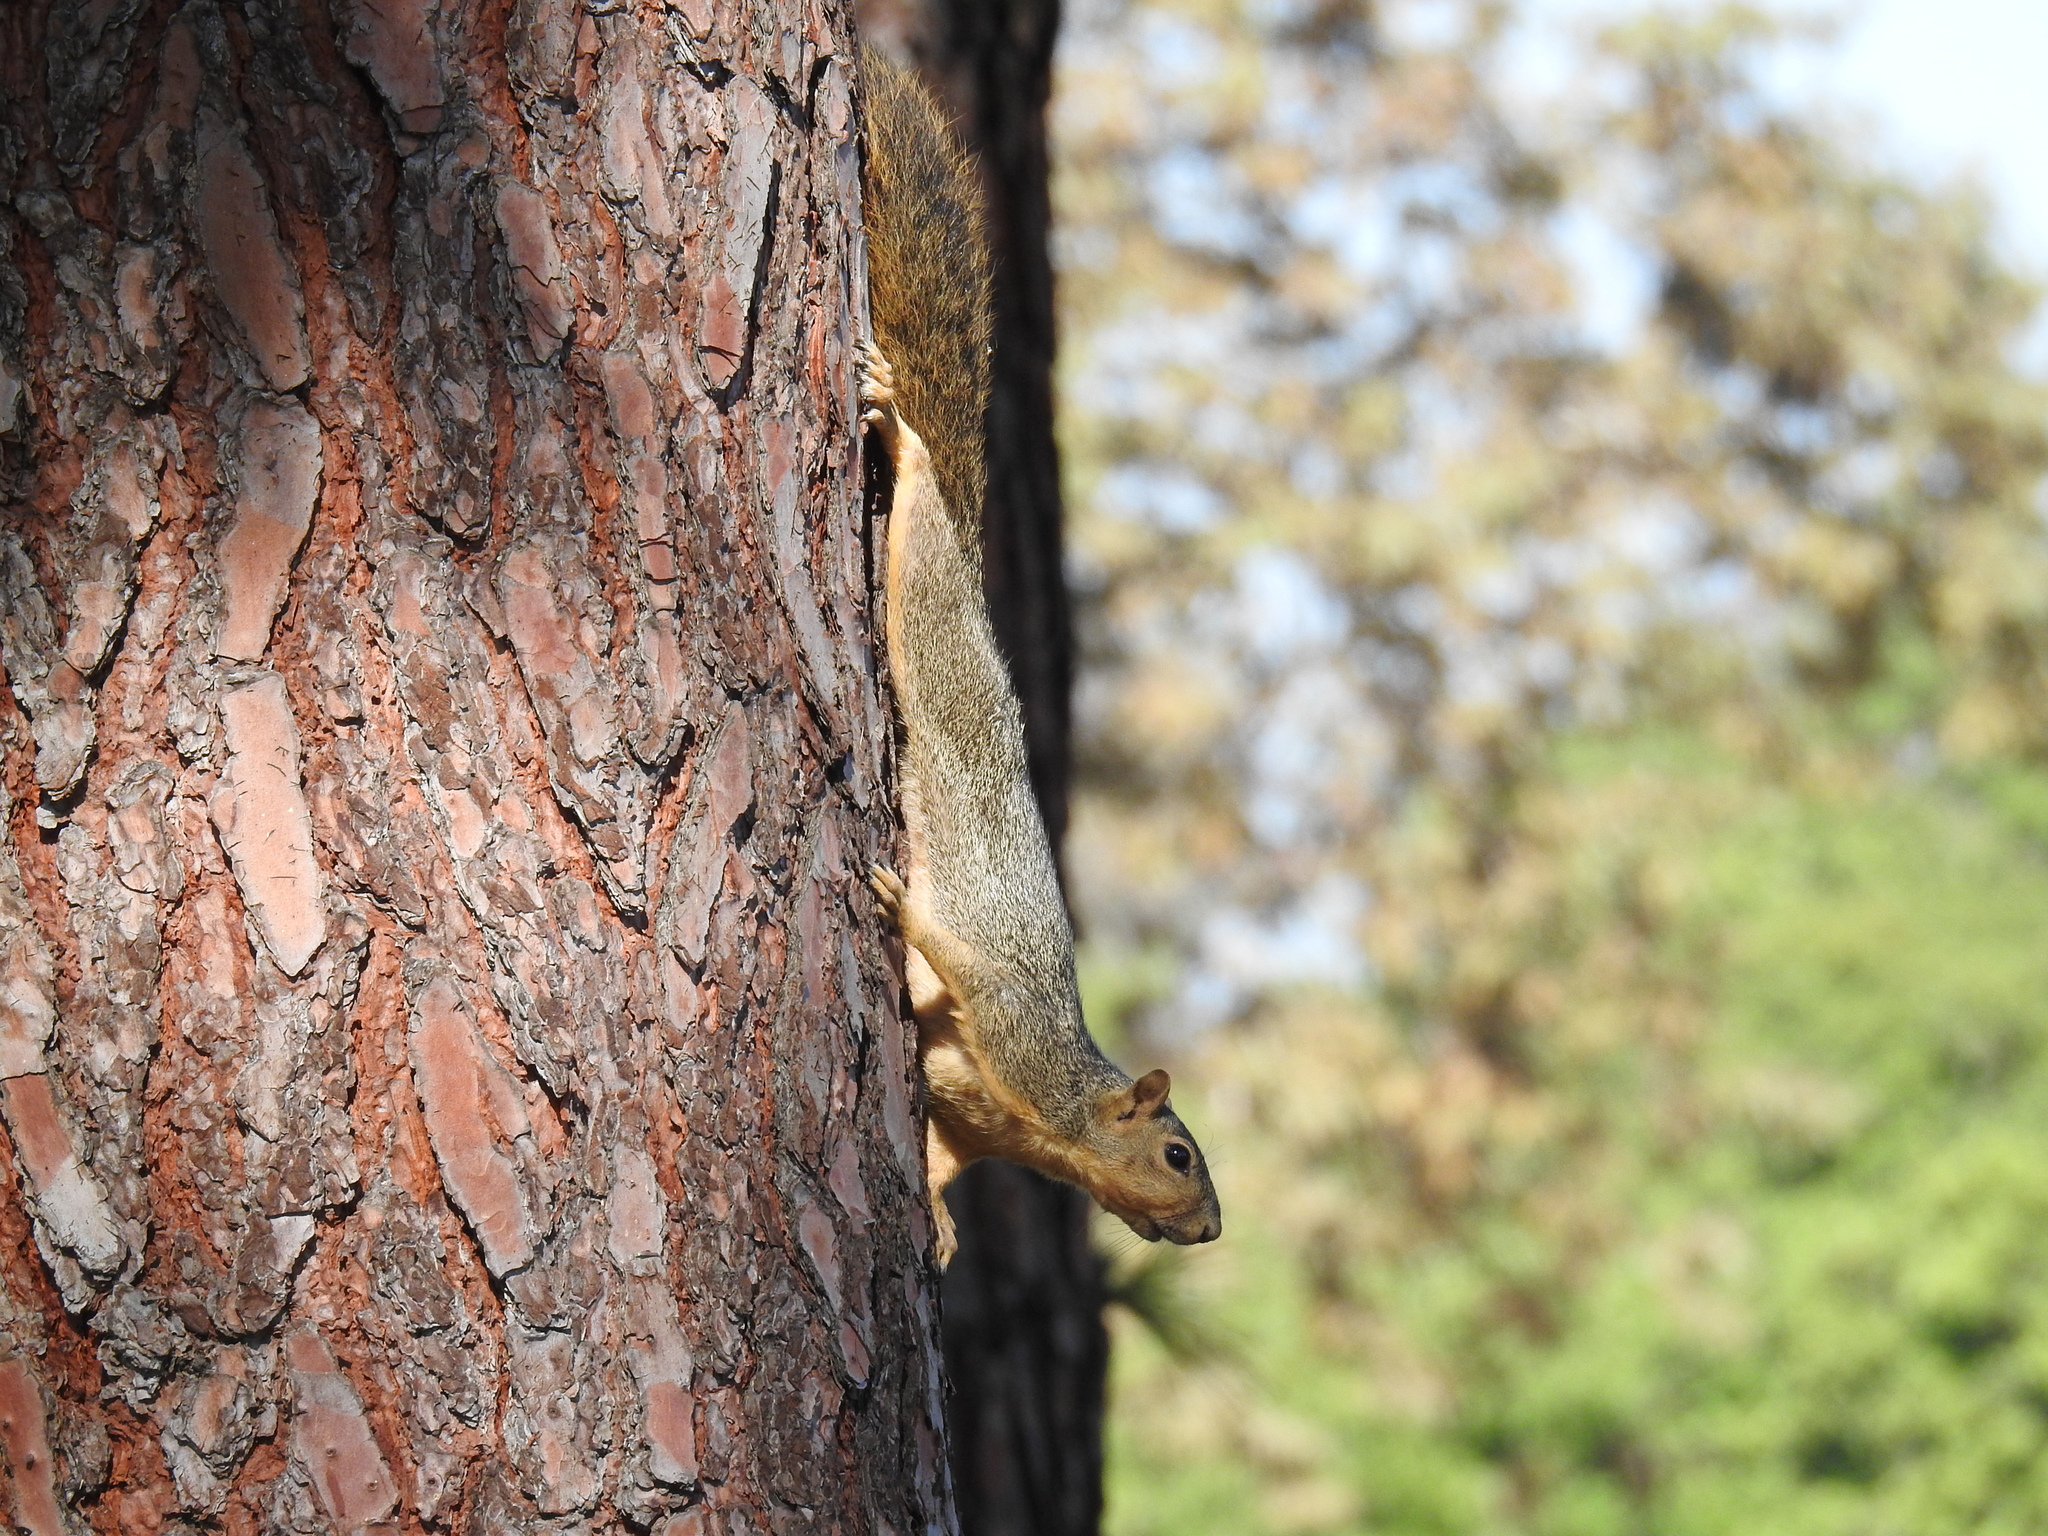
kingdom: Animalia
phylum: Chordata
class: Mammalia
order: Rodentia
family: Sciuridae
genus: Sciurus
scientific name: Sciurus niger
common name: Fox squirrel
